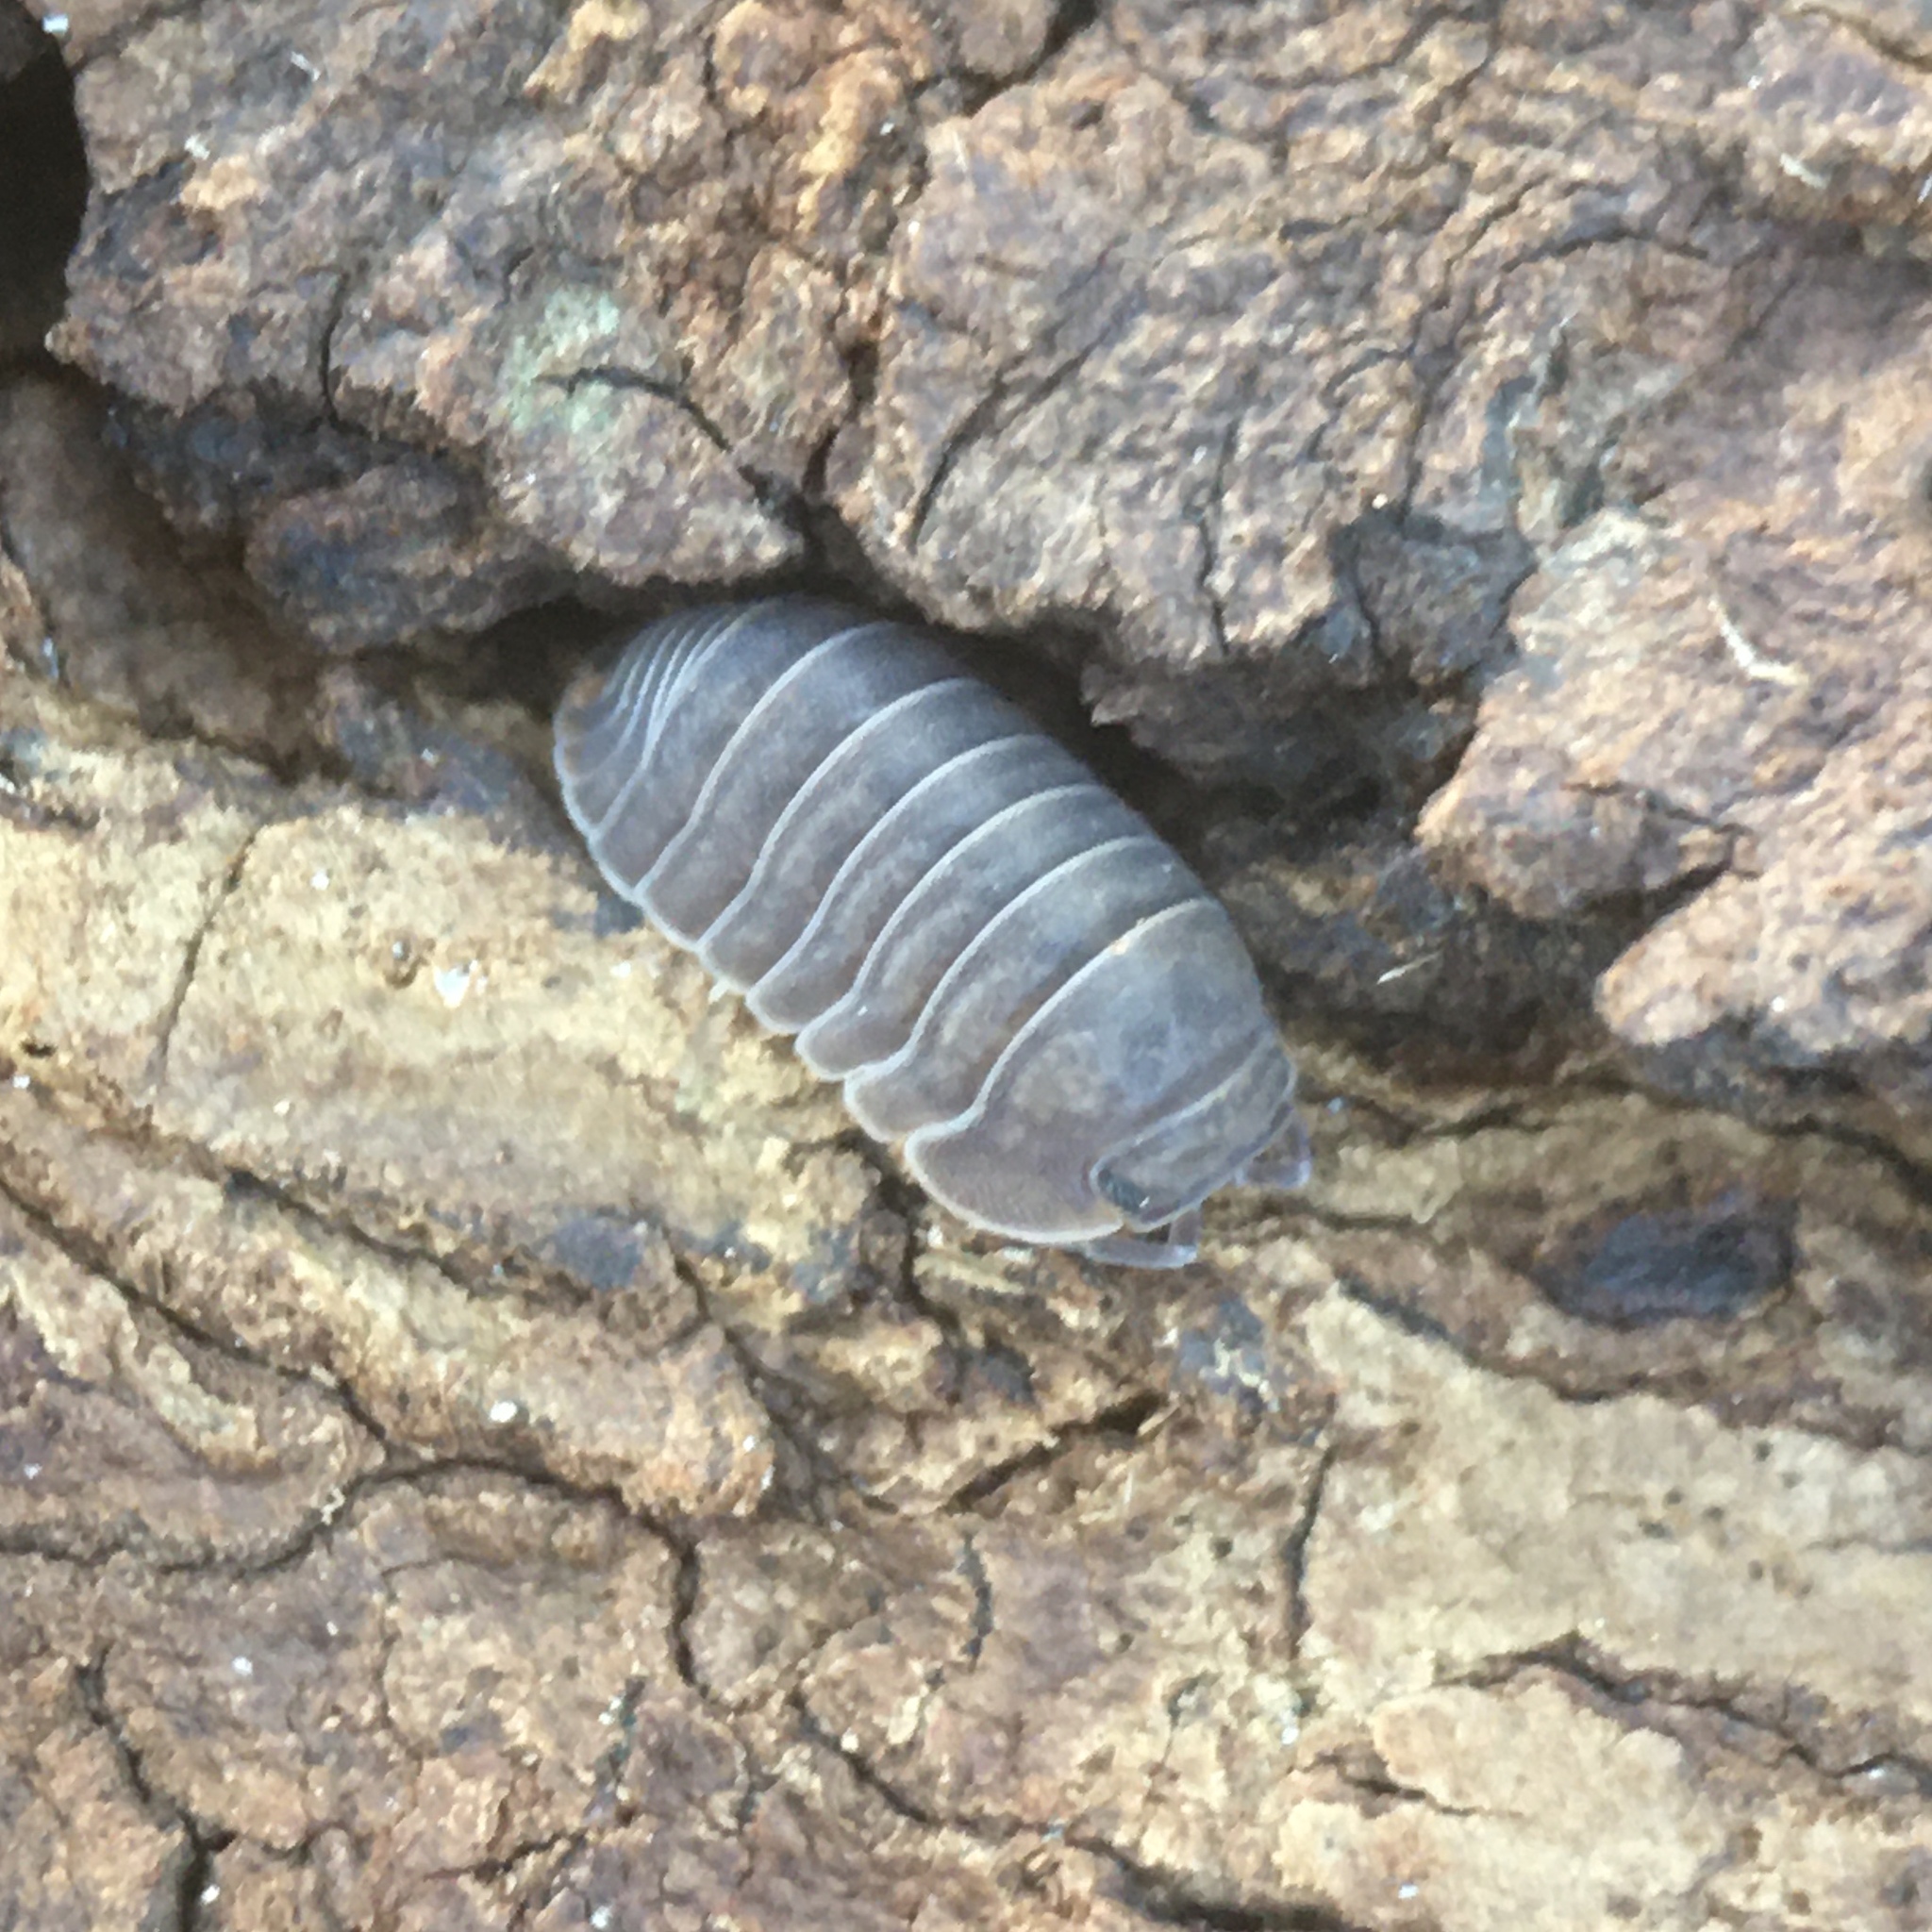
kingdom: Animalia
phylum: Arthropoda
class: Malacostraca
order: Isopoda
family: Armadillidae
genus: Cubaris
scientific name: Cubaris murina
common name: Pillbug
